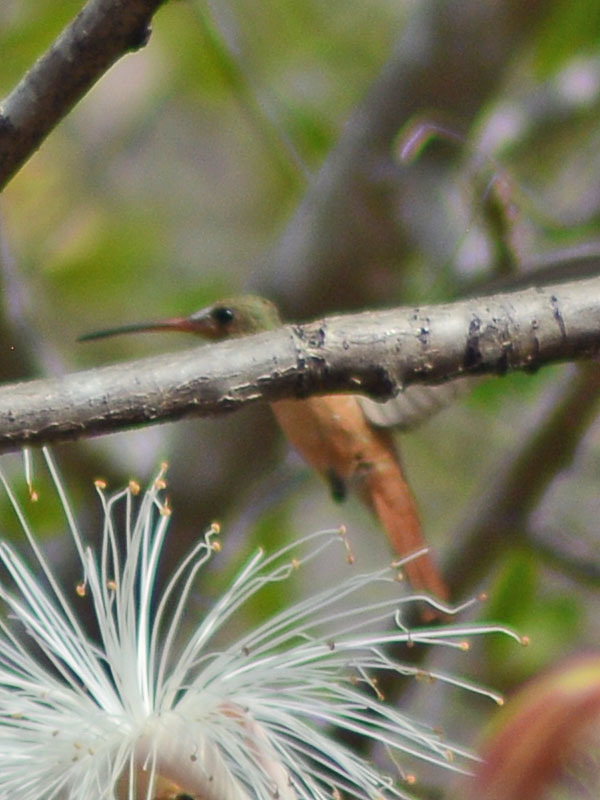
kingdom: Animalia
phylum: Chordata
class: Aves
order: Apodiformes
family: Trochilidae
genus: Amazilia
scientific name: Amazilia rutila
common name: Cinnamon hummingbird
